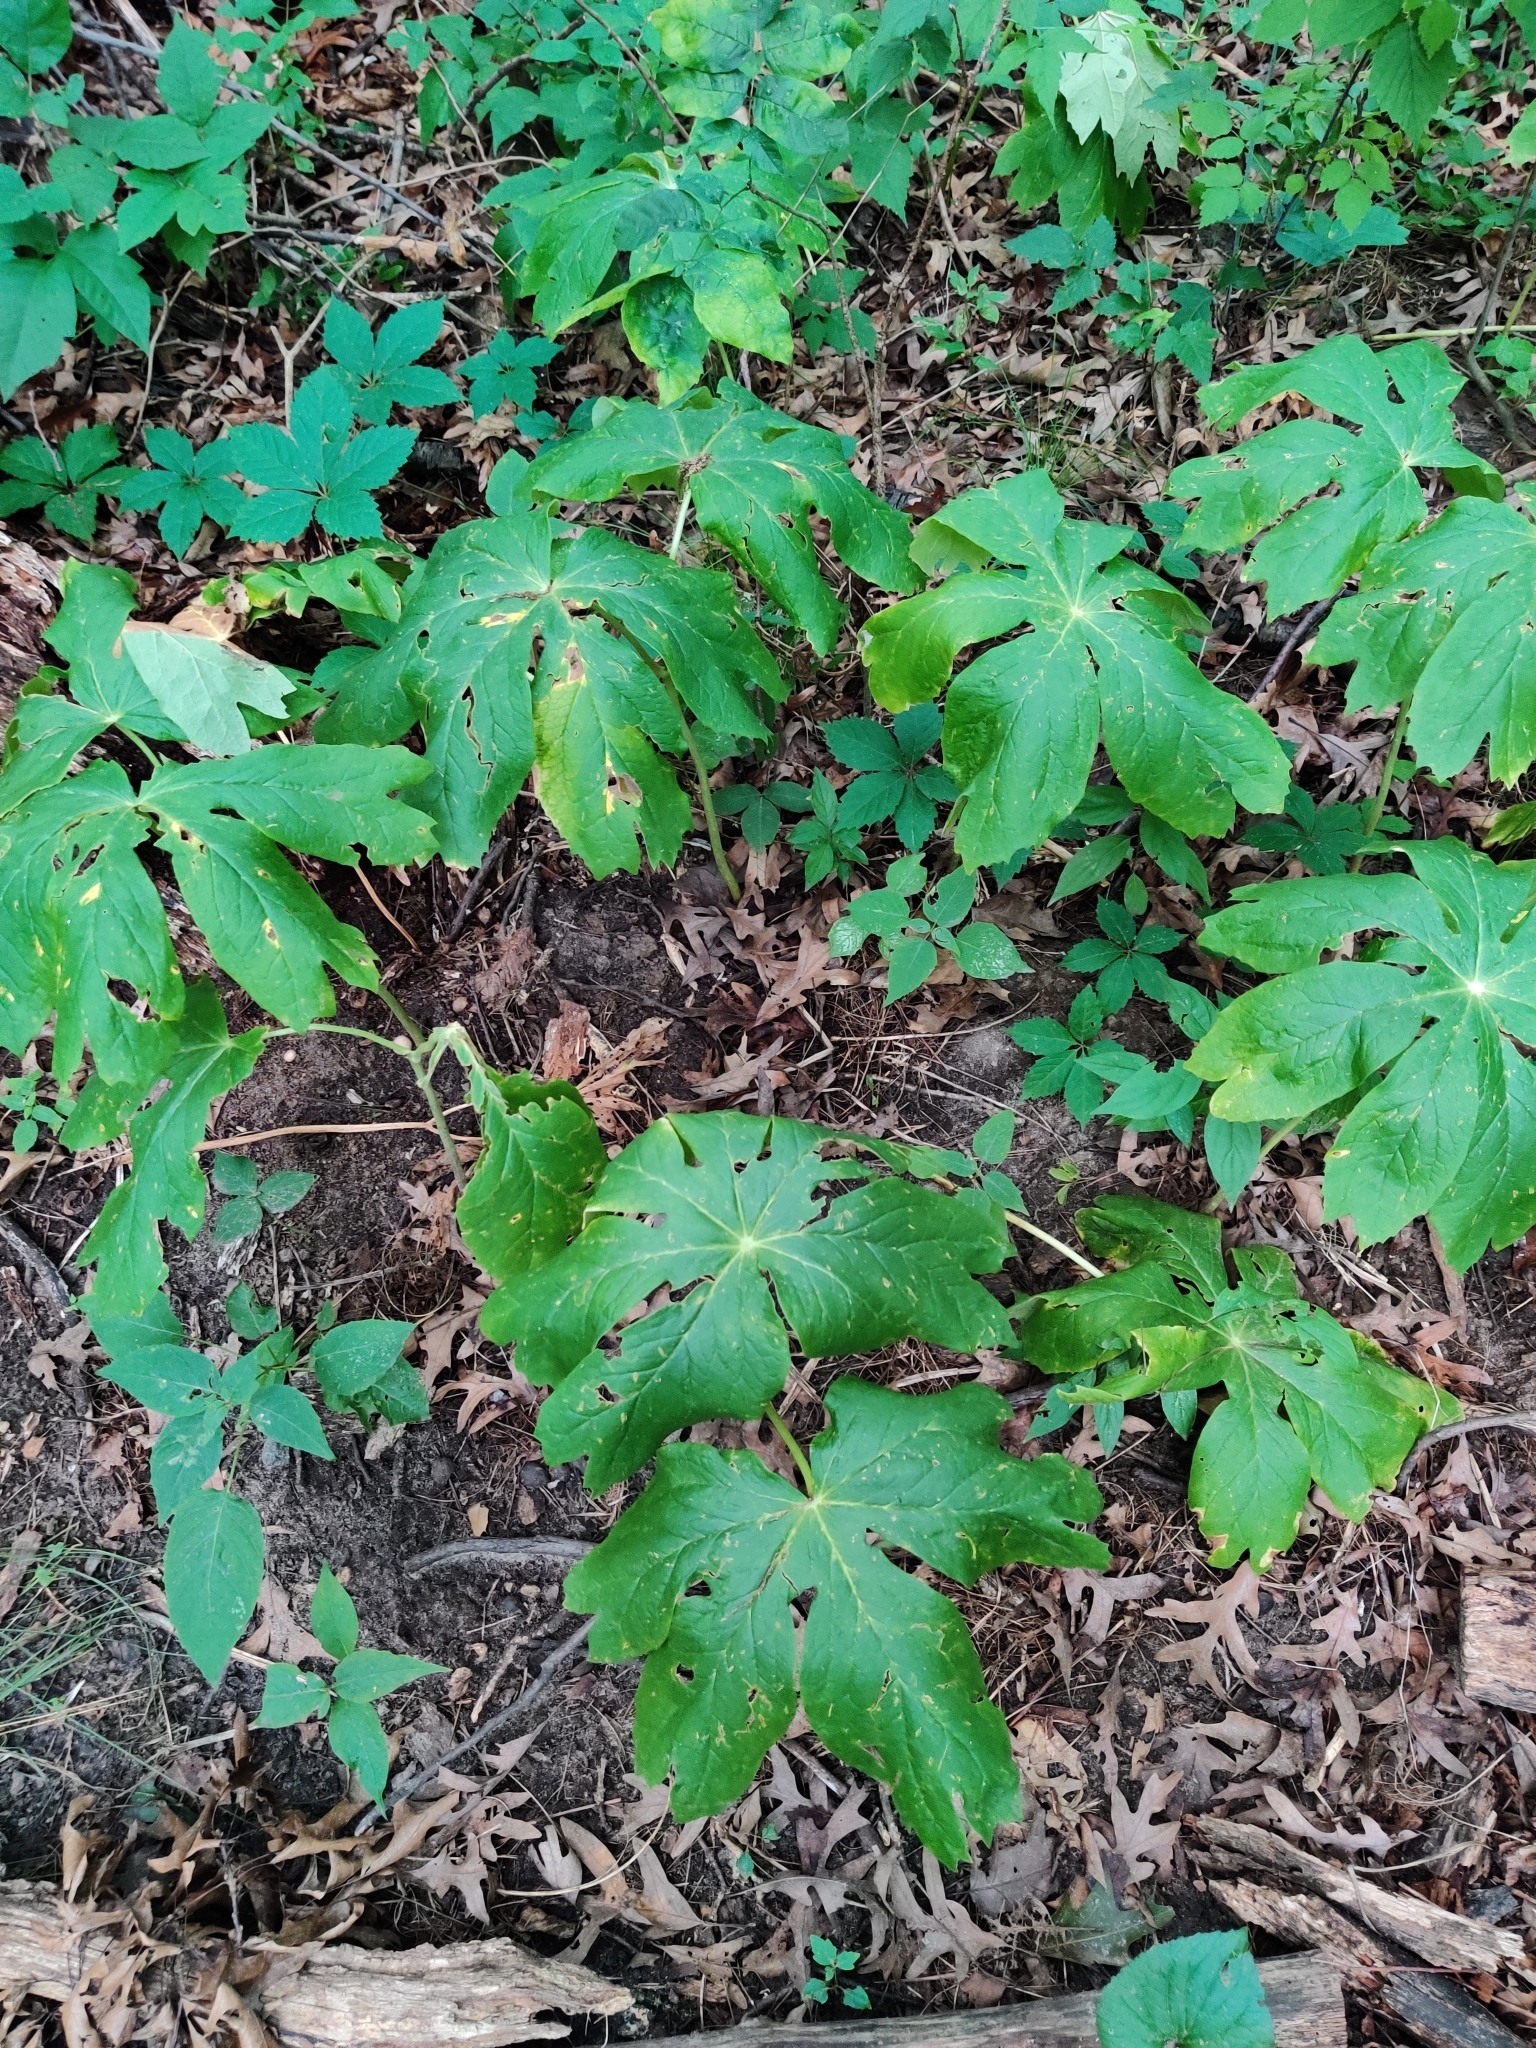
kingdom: Plantae
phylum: Tracheophyta
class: Magnoliopsida
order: Ranunculales
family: Berberidaceae
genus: Podophyllum
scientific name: Podophyllum peltatum
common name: Wild mandrake
